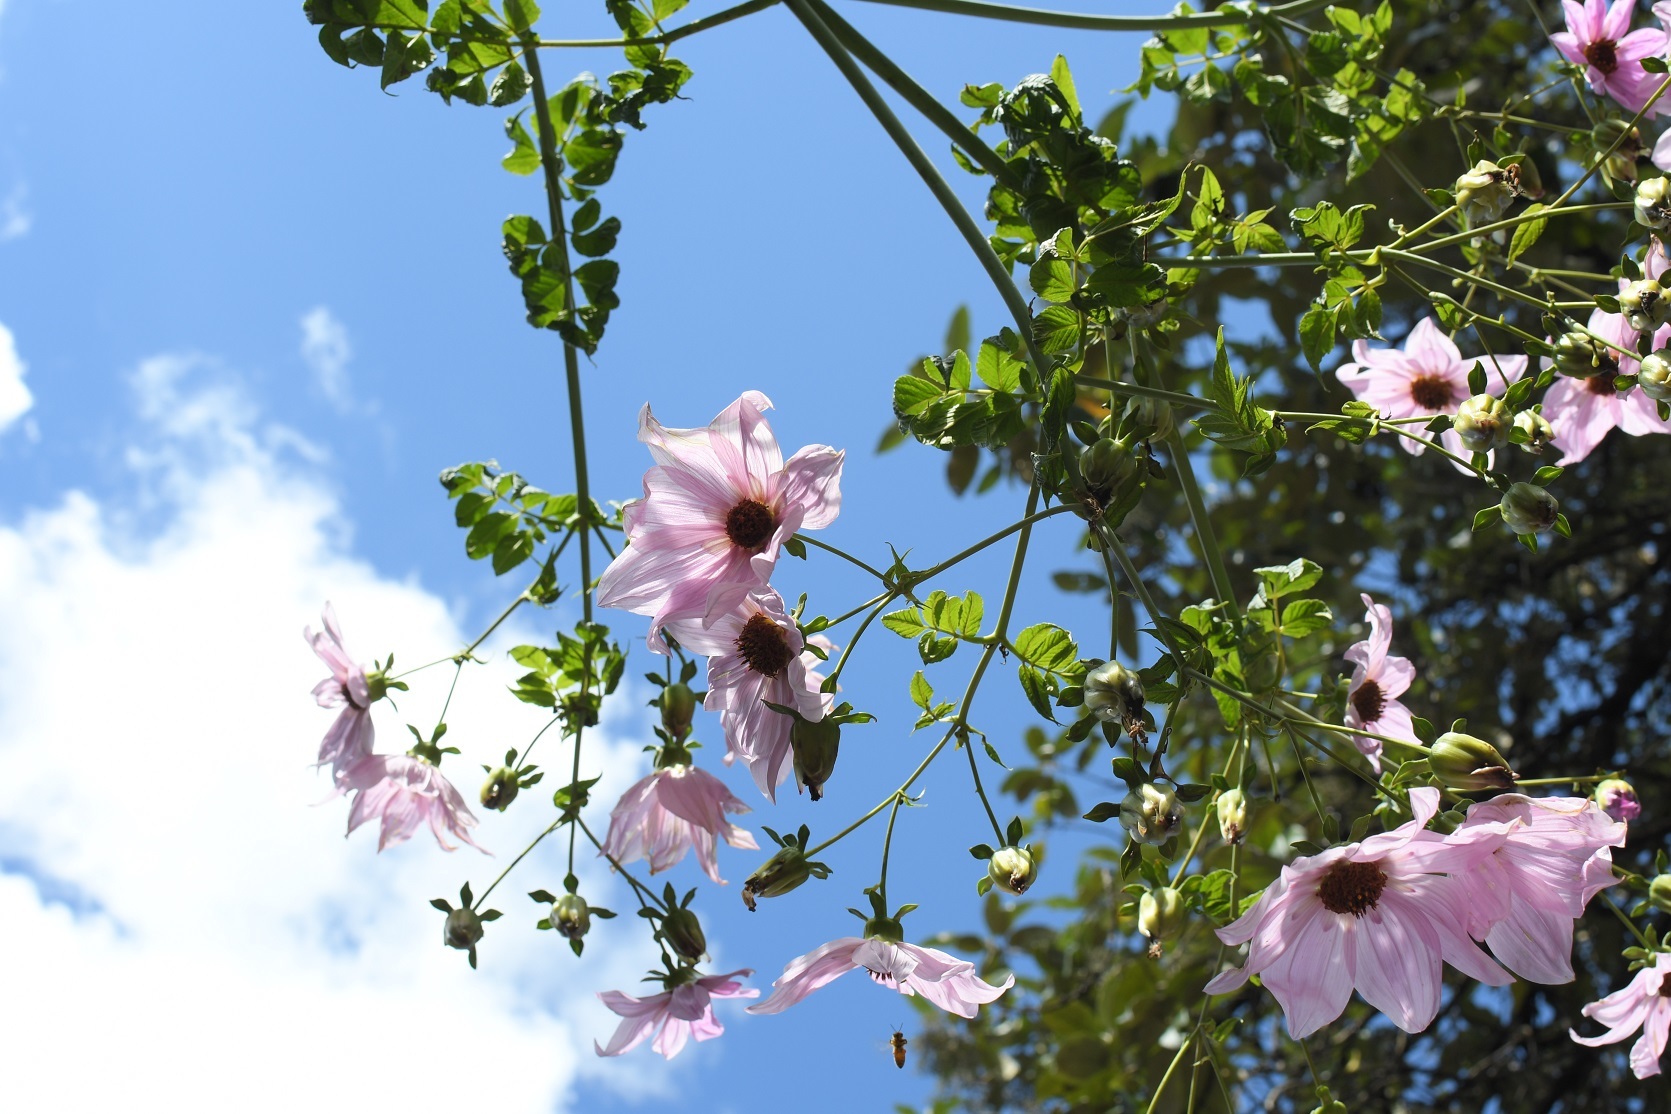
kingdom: Plantae
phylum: Tracheophyta
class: Magnoliopsida
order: Asterales
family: Asteraceae
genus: Dahlia
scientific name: Dahlia imperialis
